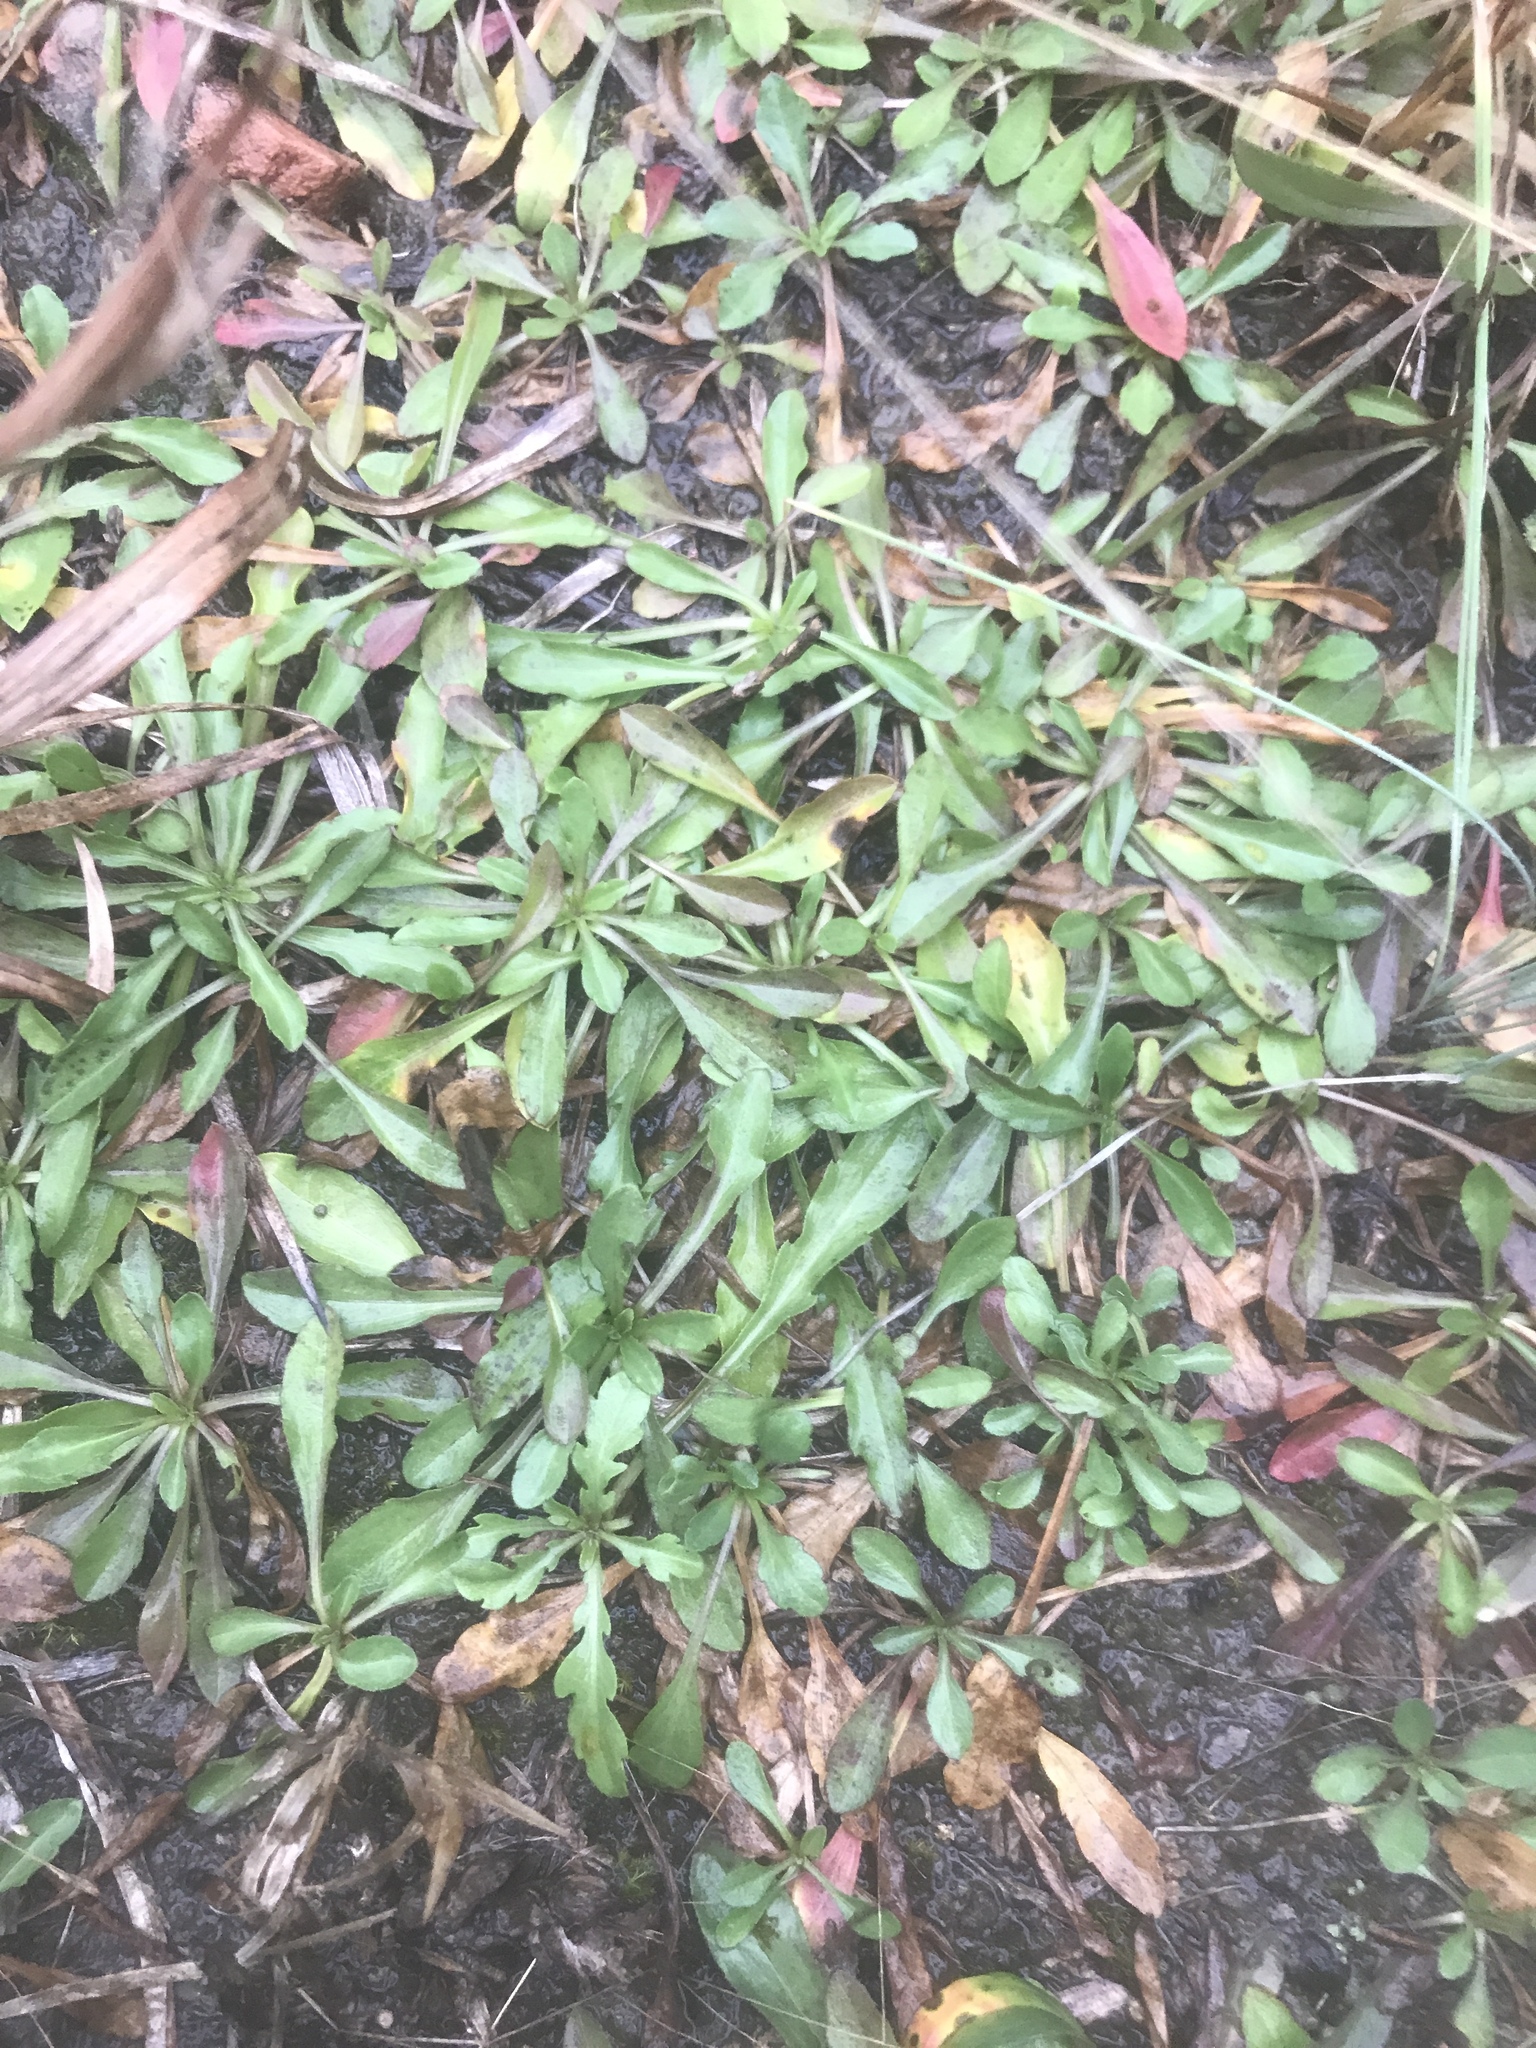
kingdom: Plantae
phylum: Tracheophyta
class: Magnoliopsida
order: Asterales
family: Asteraceae
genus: Erigeron
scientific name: Erigeron allisonii
